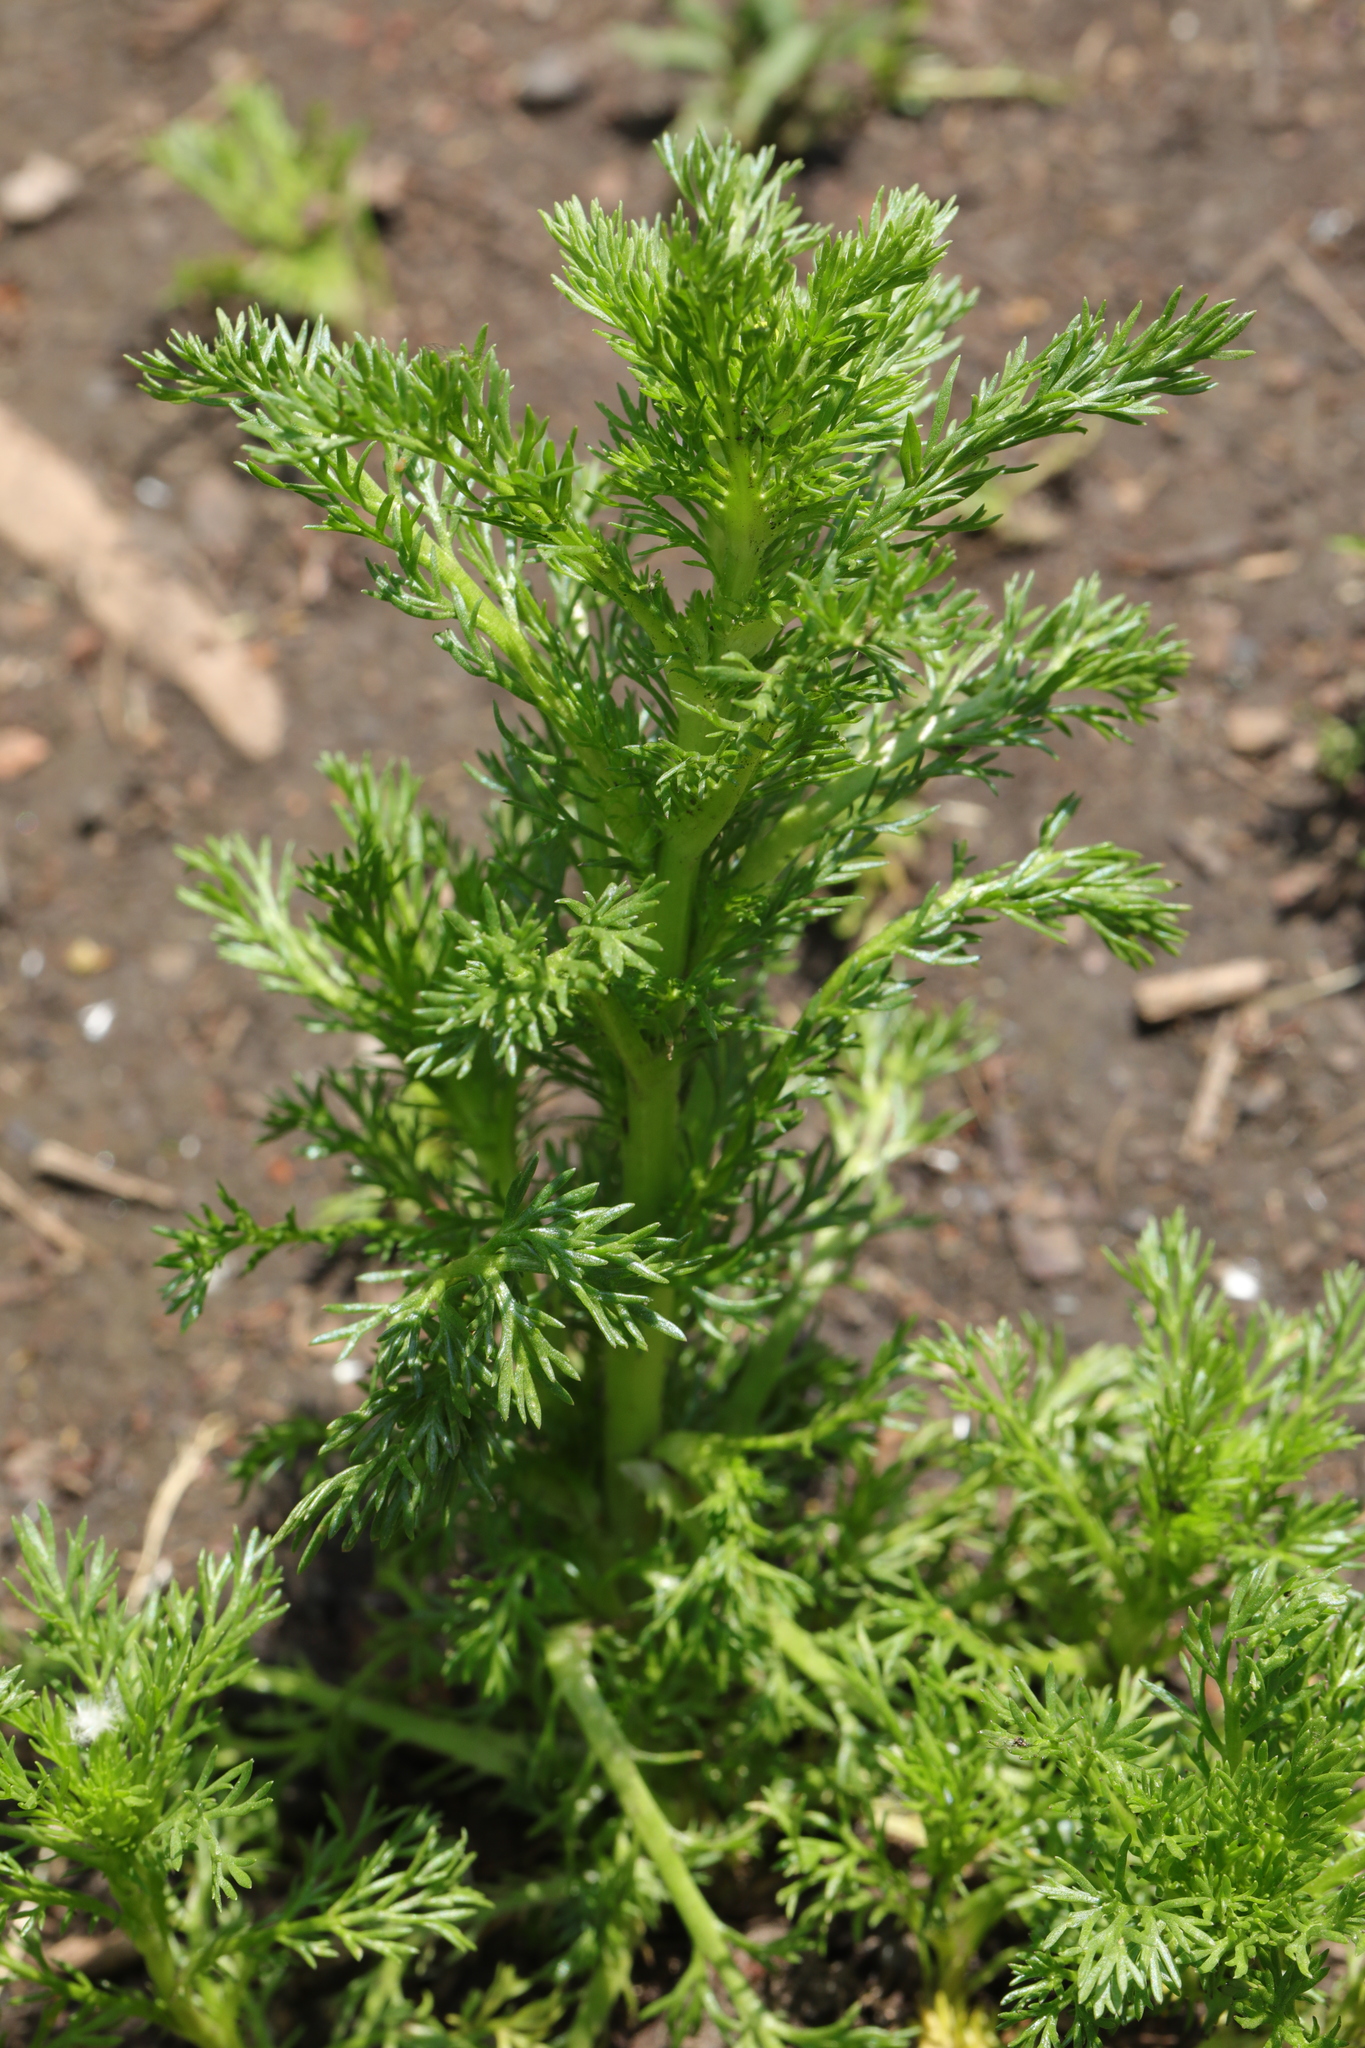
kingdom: Plantae
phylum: Tracheophyta
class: Magnoliopsida
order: Asterales
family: Asteraceae
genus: Matricaria
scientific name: Matricaria discoidea
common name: Disc mayweed
